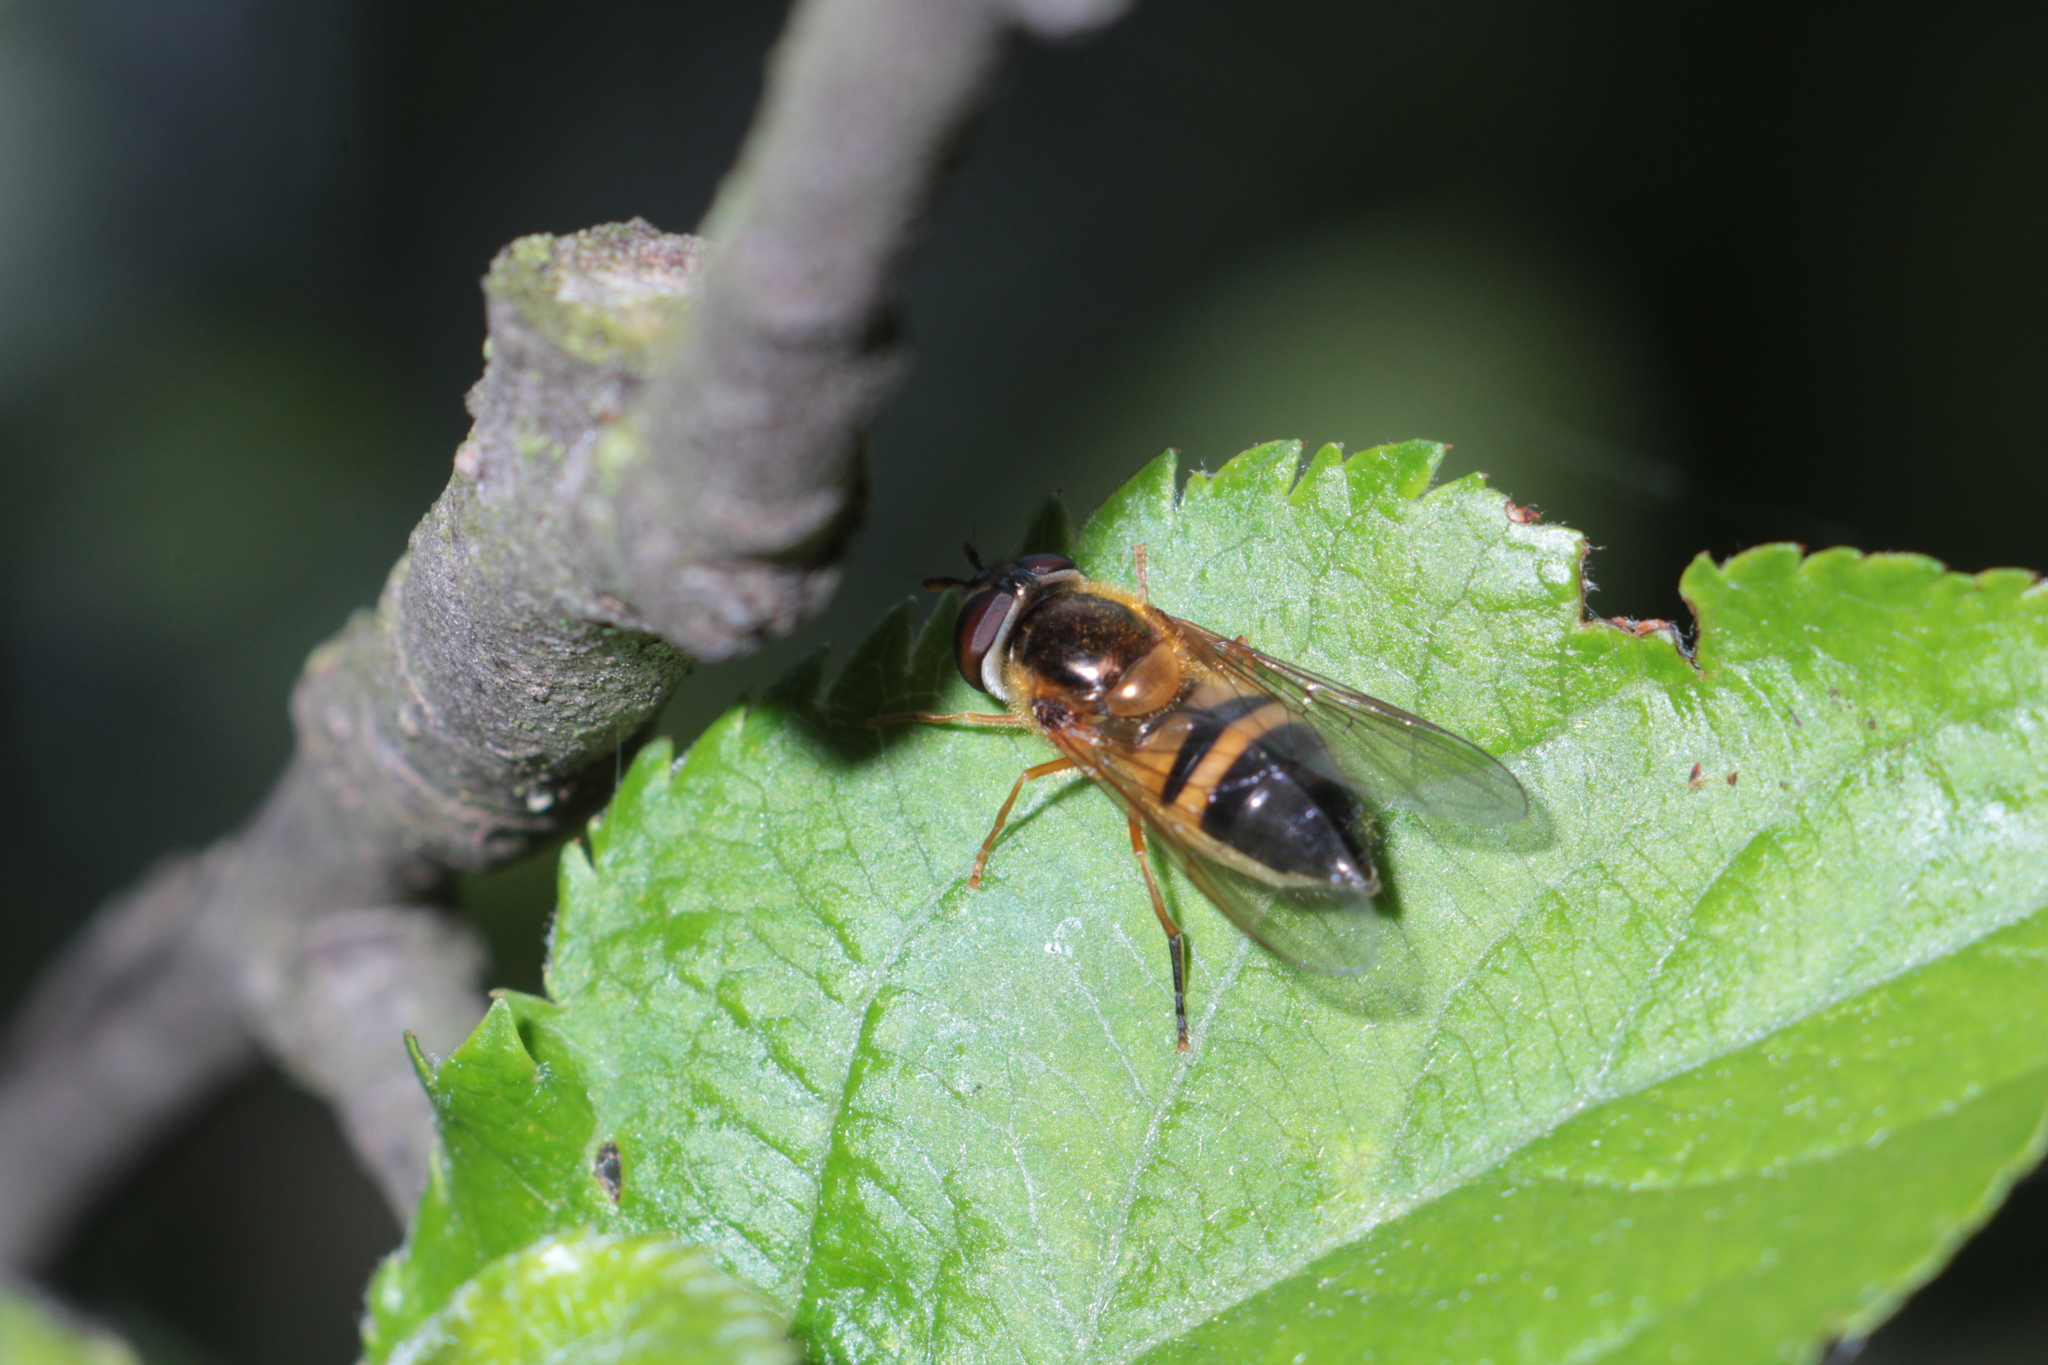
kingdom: Animalia
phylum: Arthropoda
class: Insecta
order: Diptera
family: Syrphidae
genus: Epistrophe
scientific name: Epistrophe eligans
